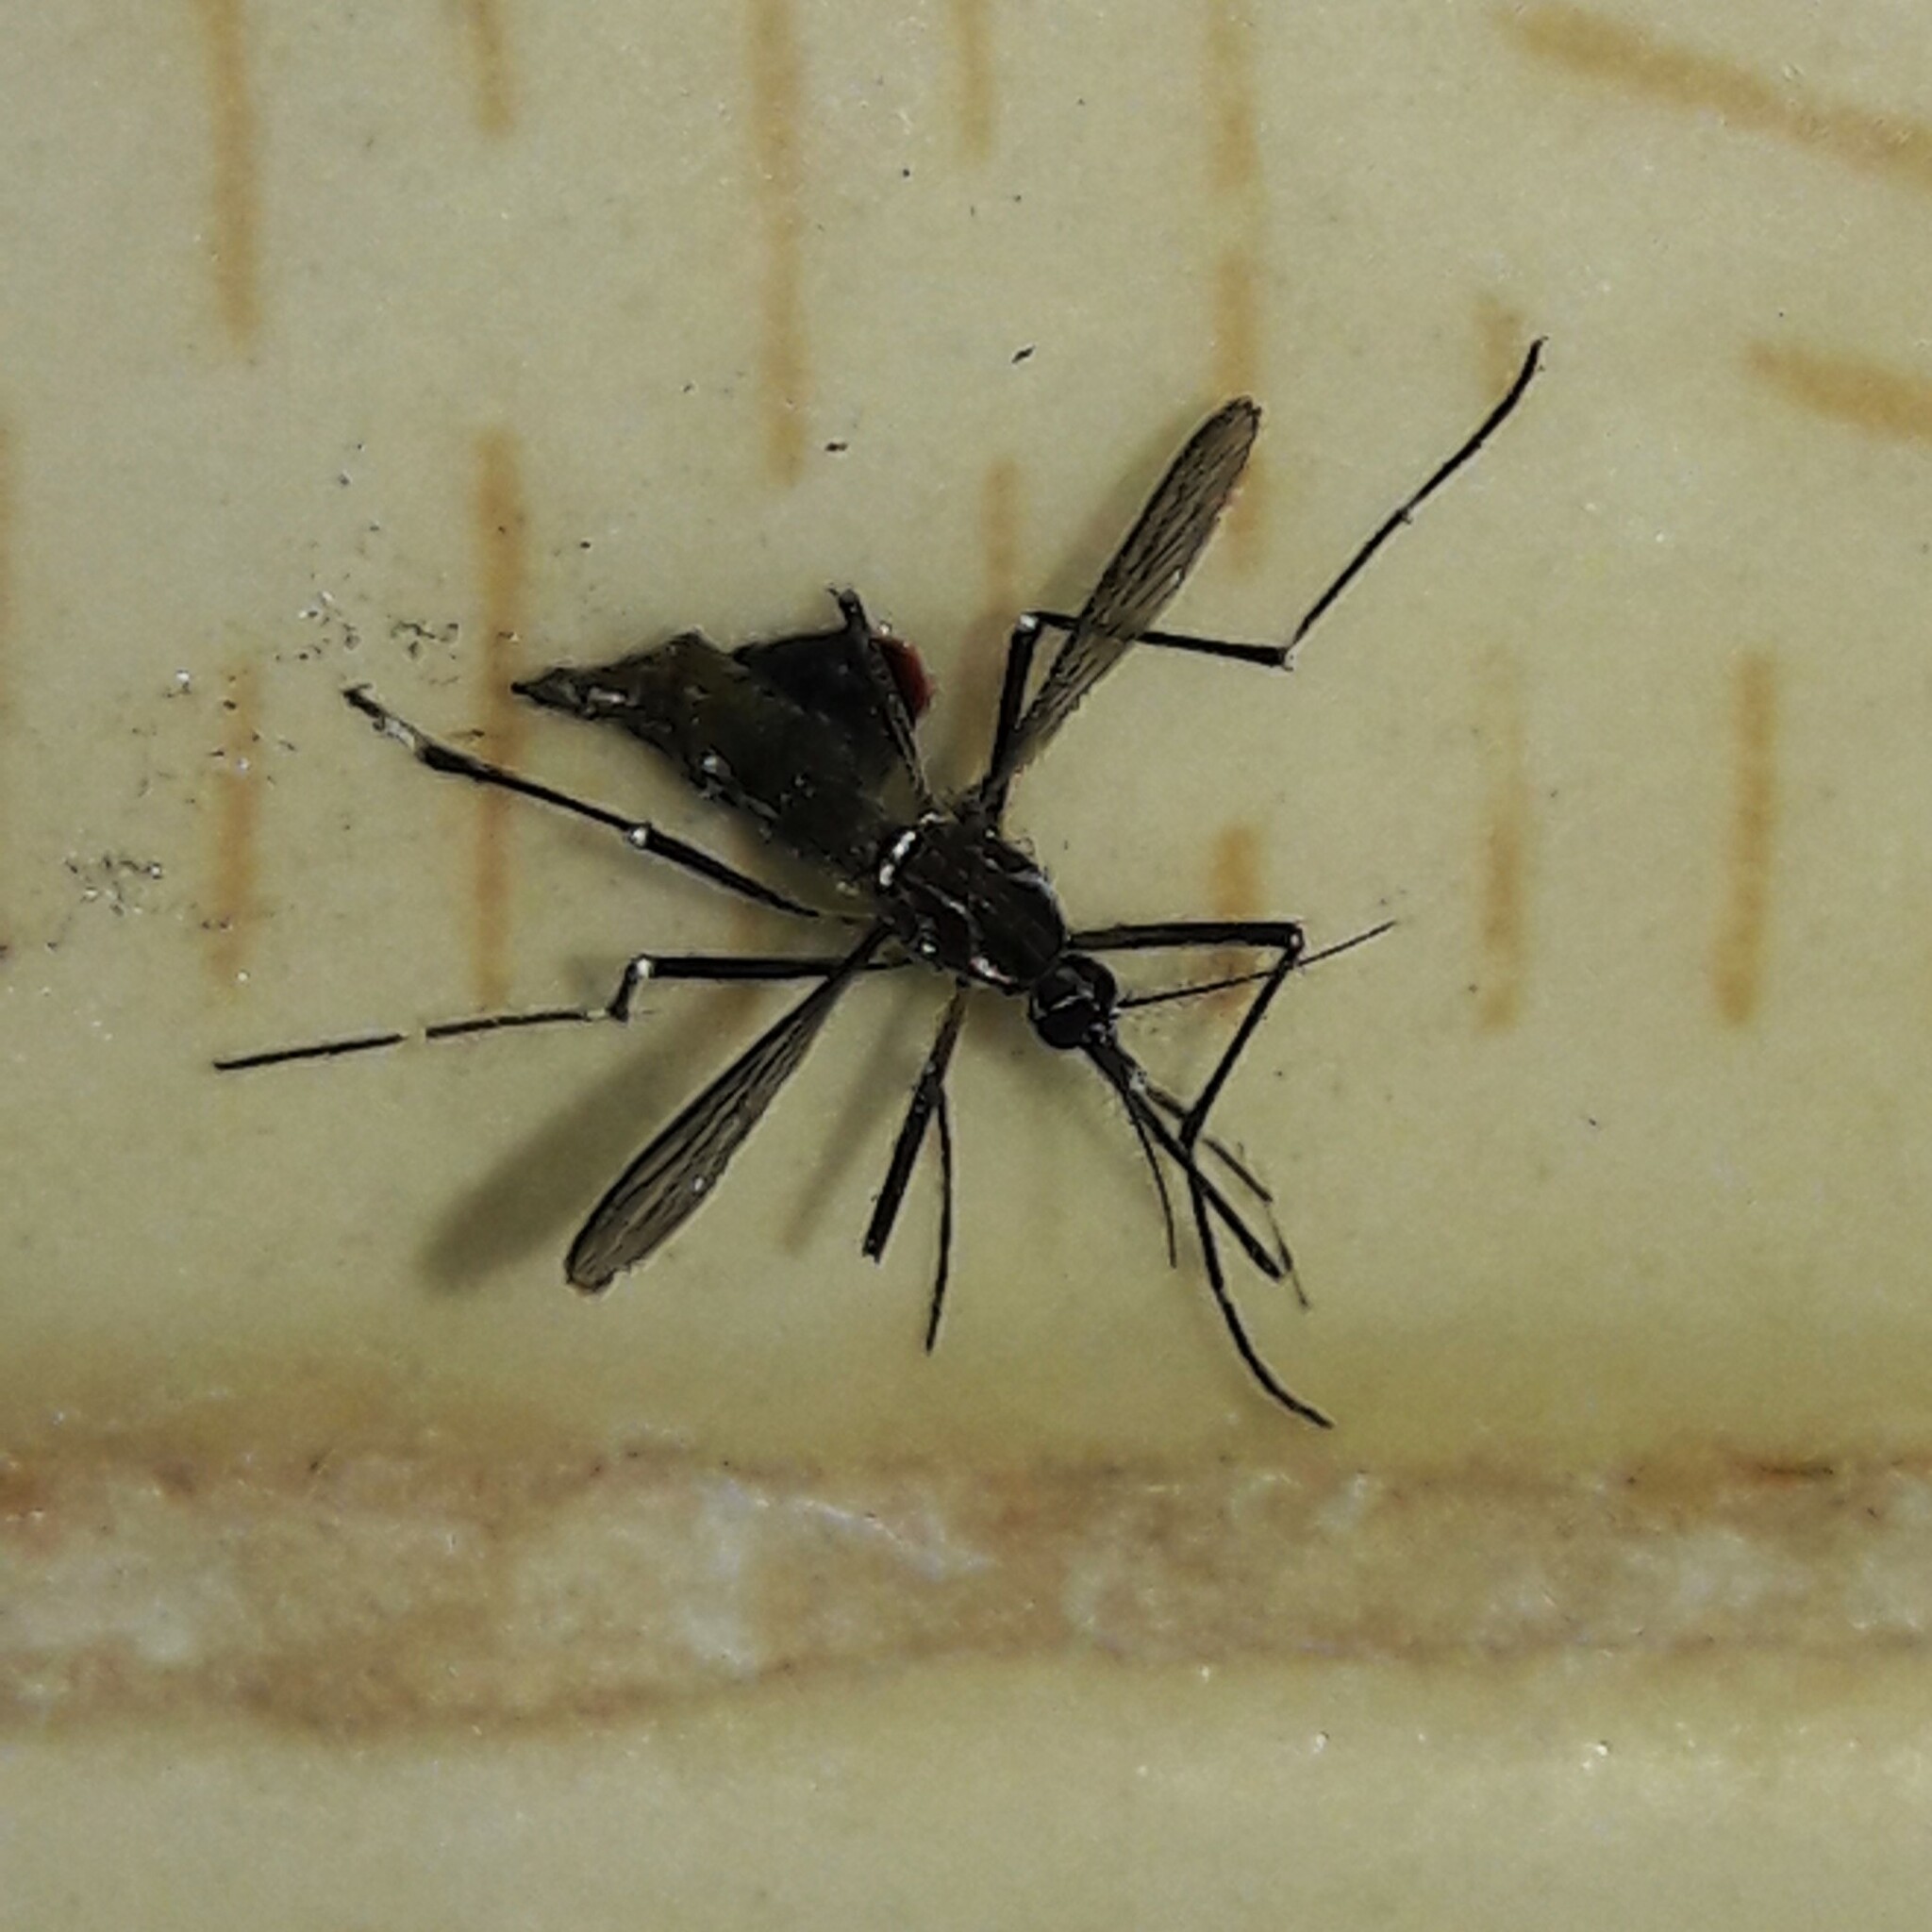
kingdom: Animalia
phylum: Arthropoda
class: Insecta
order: Diptera
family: Culicidae
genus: Aedes
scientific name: Aedes aegypti
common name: Yellow fever mosquito
